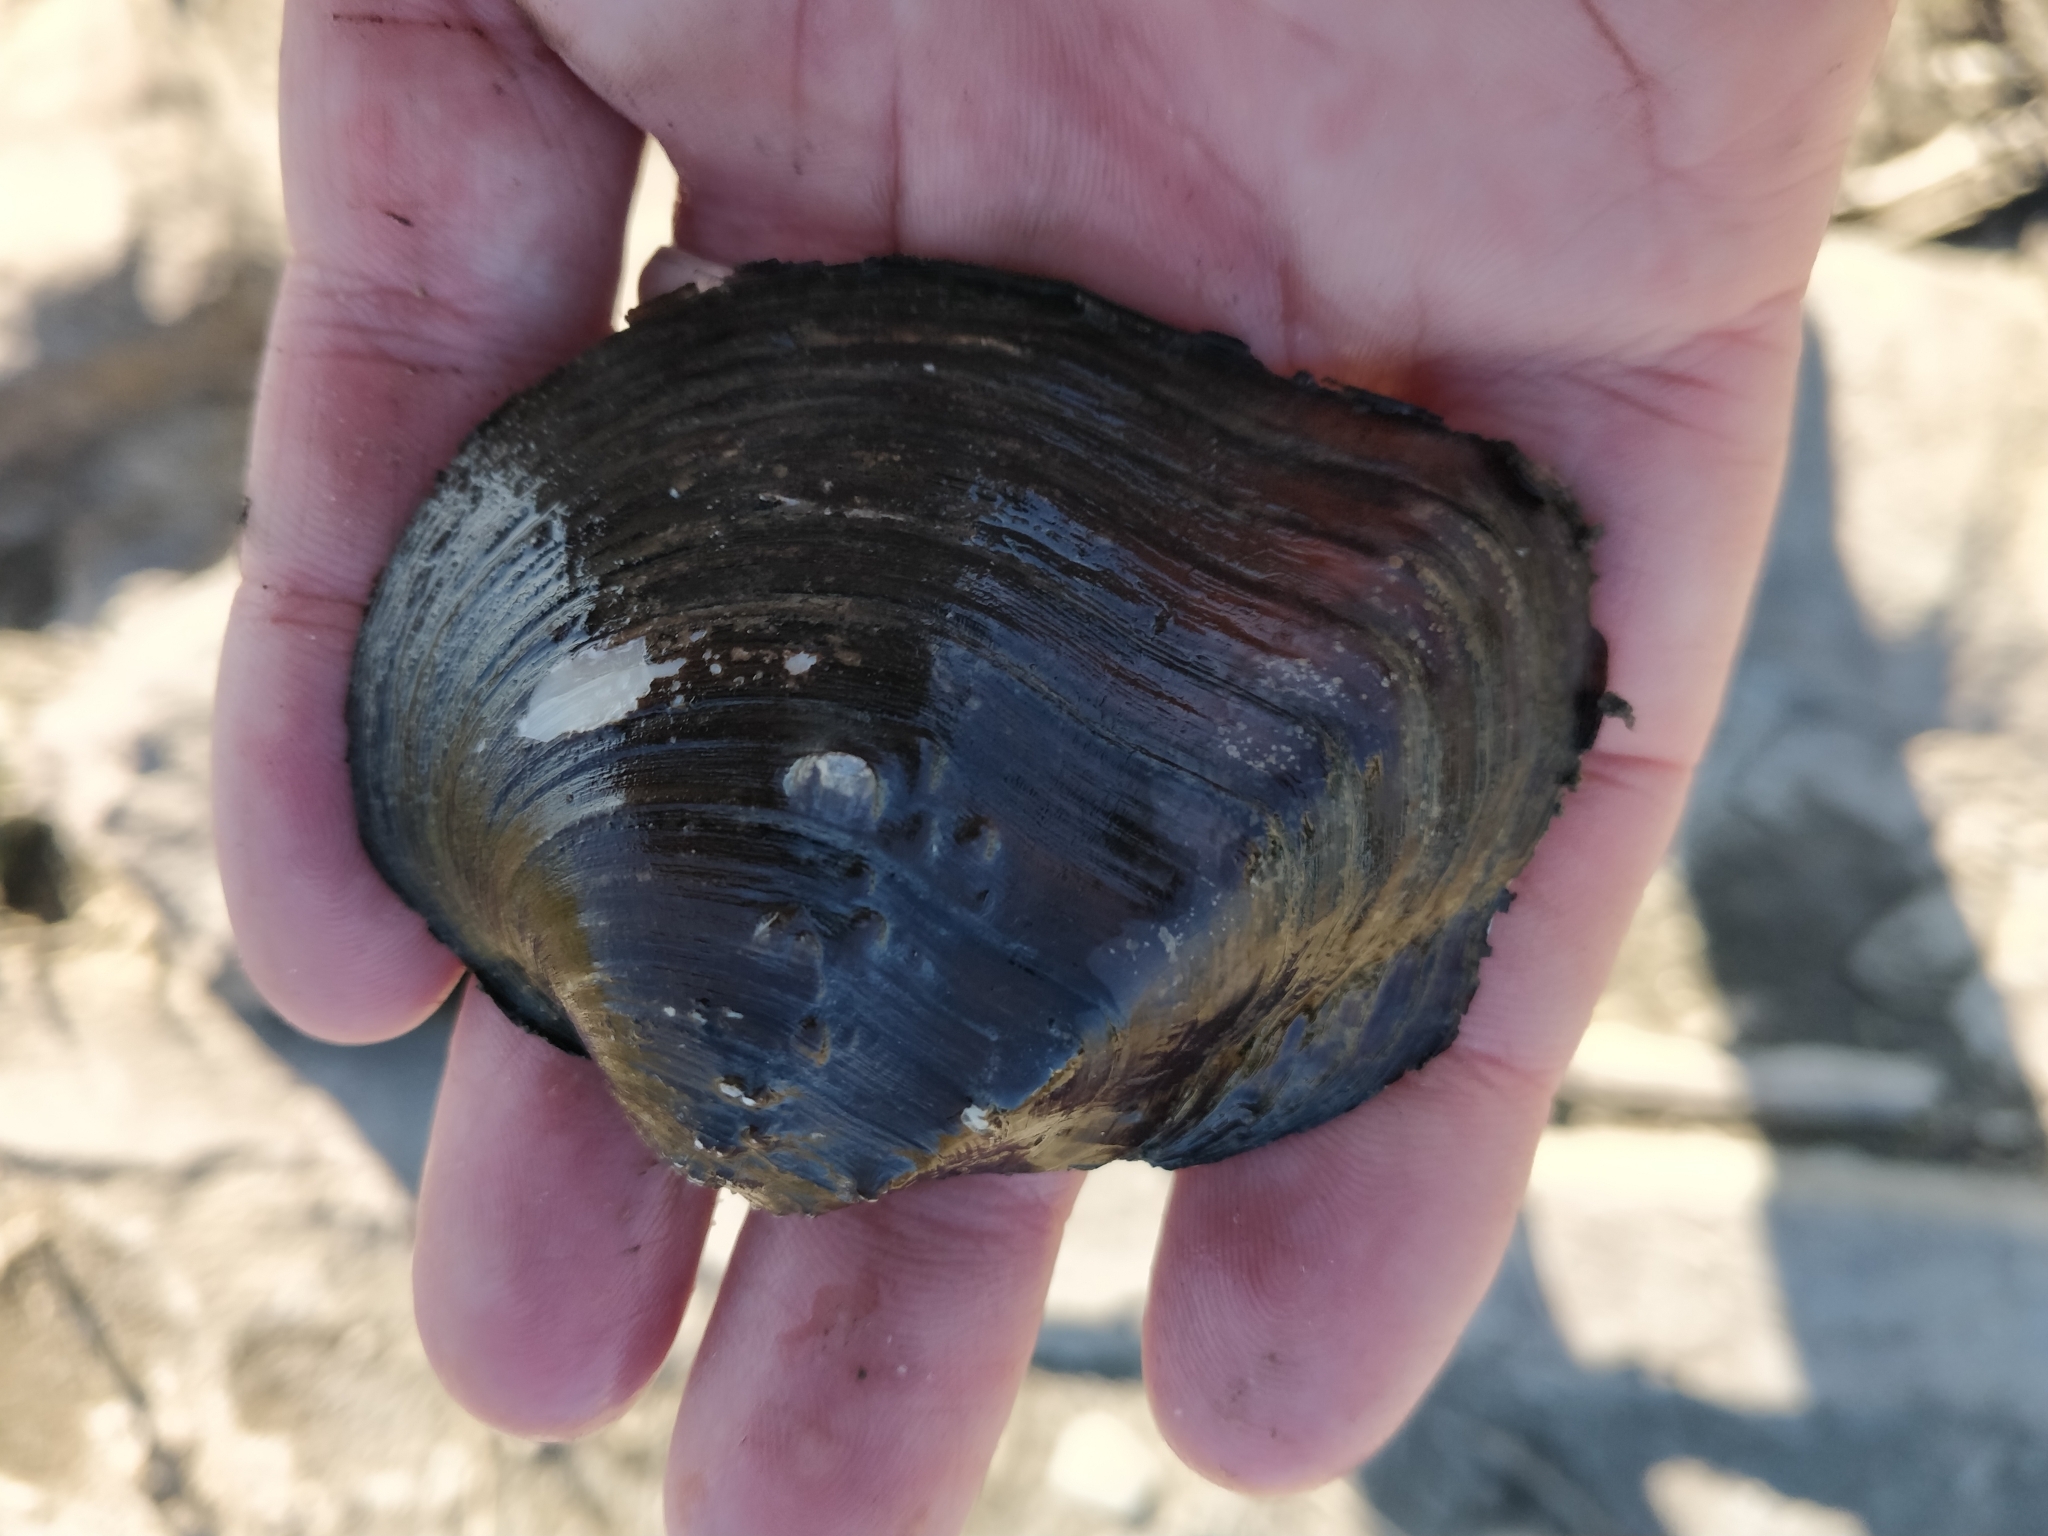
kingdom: Animalia
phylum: Mollusca
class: Bivalvia
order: Unionida
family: Unionidae
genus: Quadrula
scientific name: Quadrula quadrula
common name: Mapleleaf
